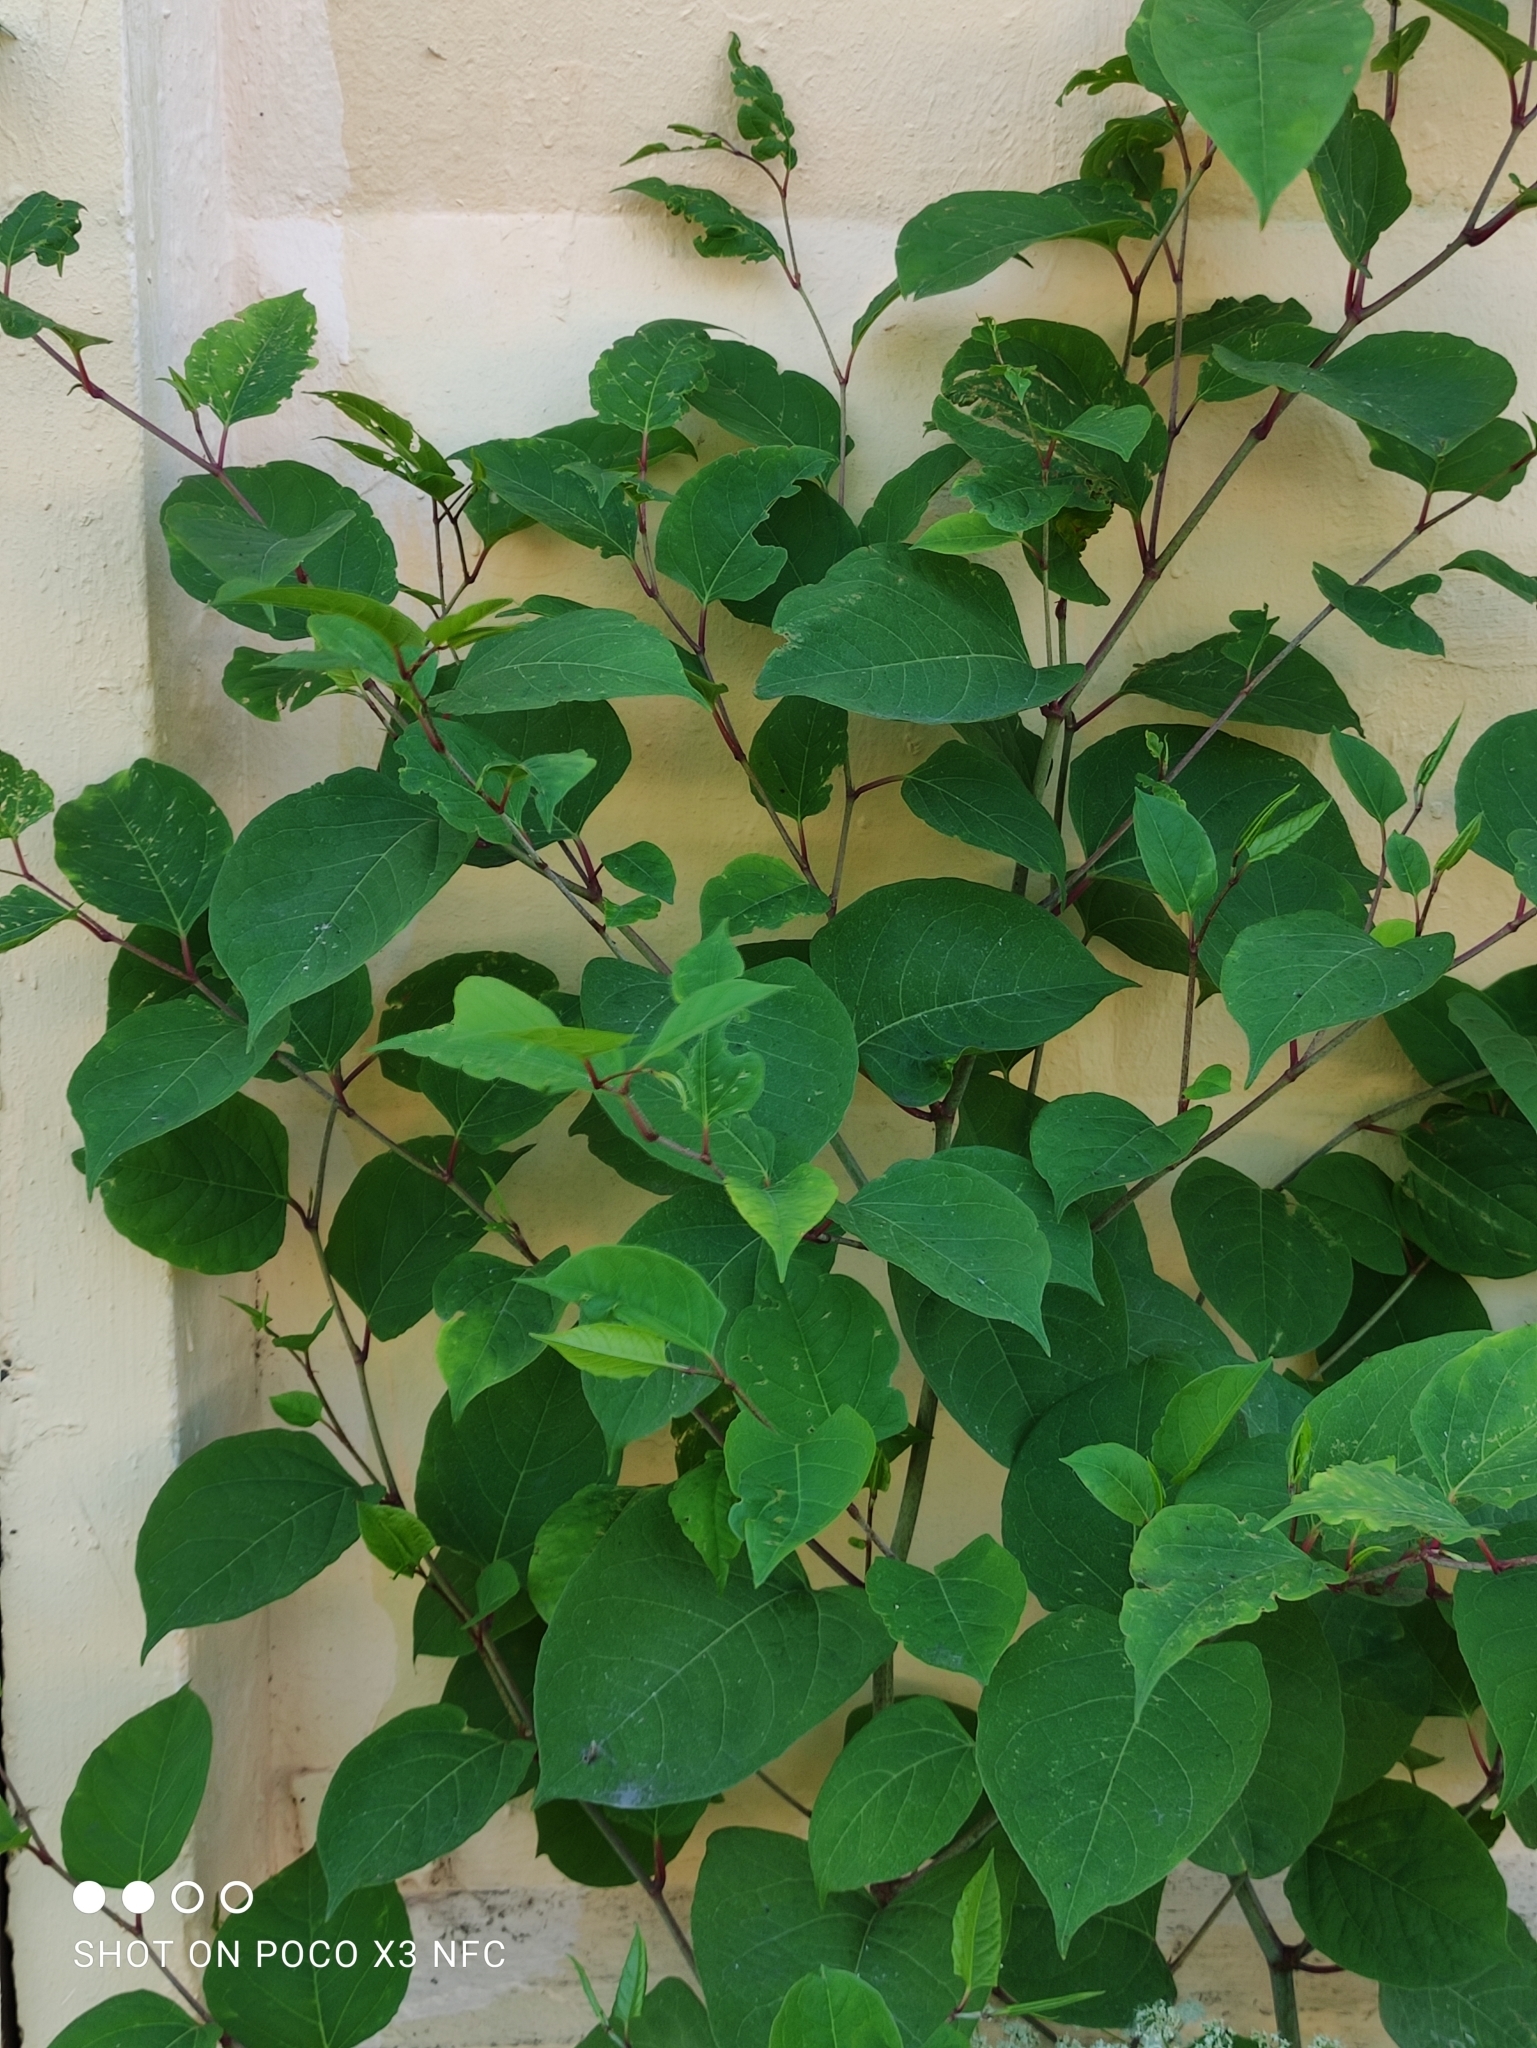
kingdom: Plantae
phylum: Tracheophyta
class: Magnoliopsida
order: Caryophyllales
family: Polygonaceae
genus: Reynoutria
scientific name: Reynoutria bohemica
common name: Bohemian knotweed
